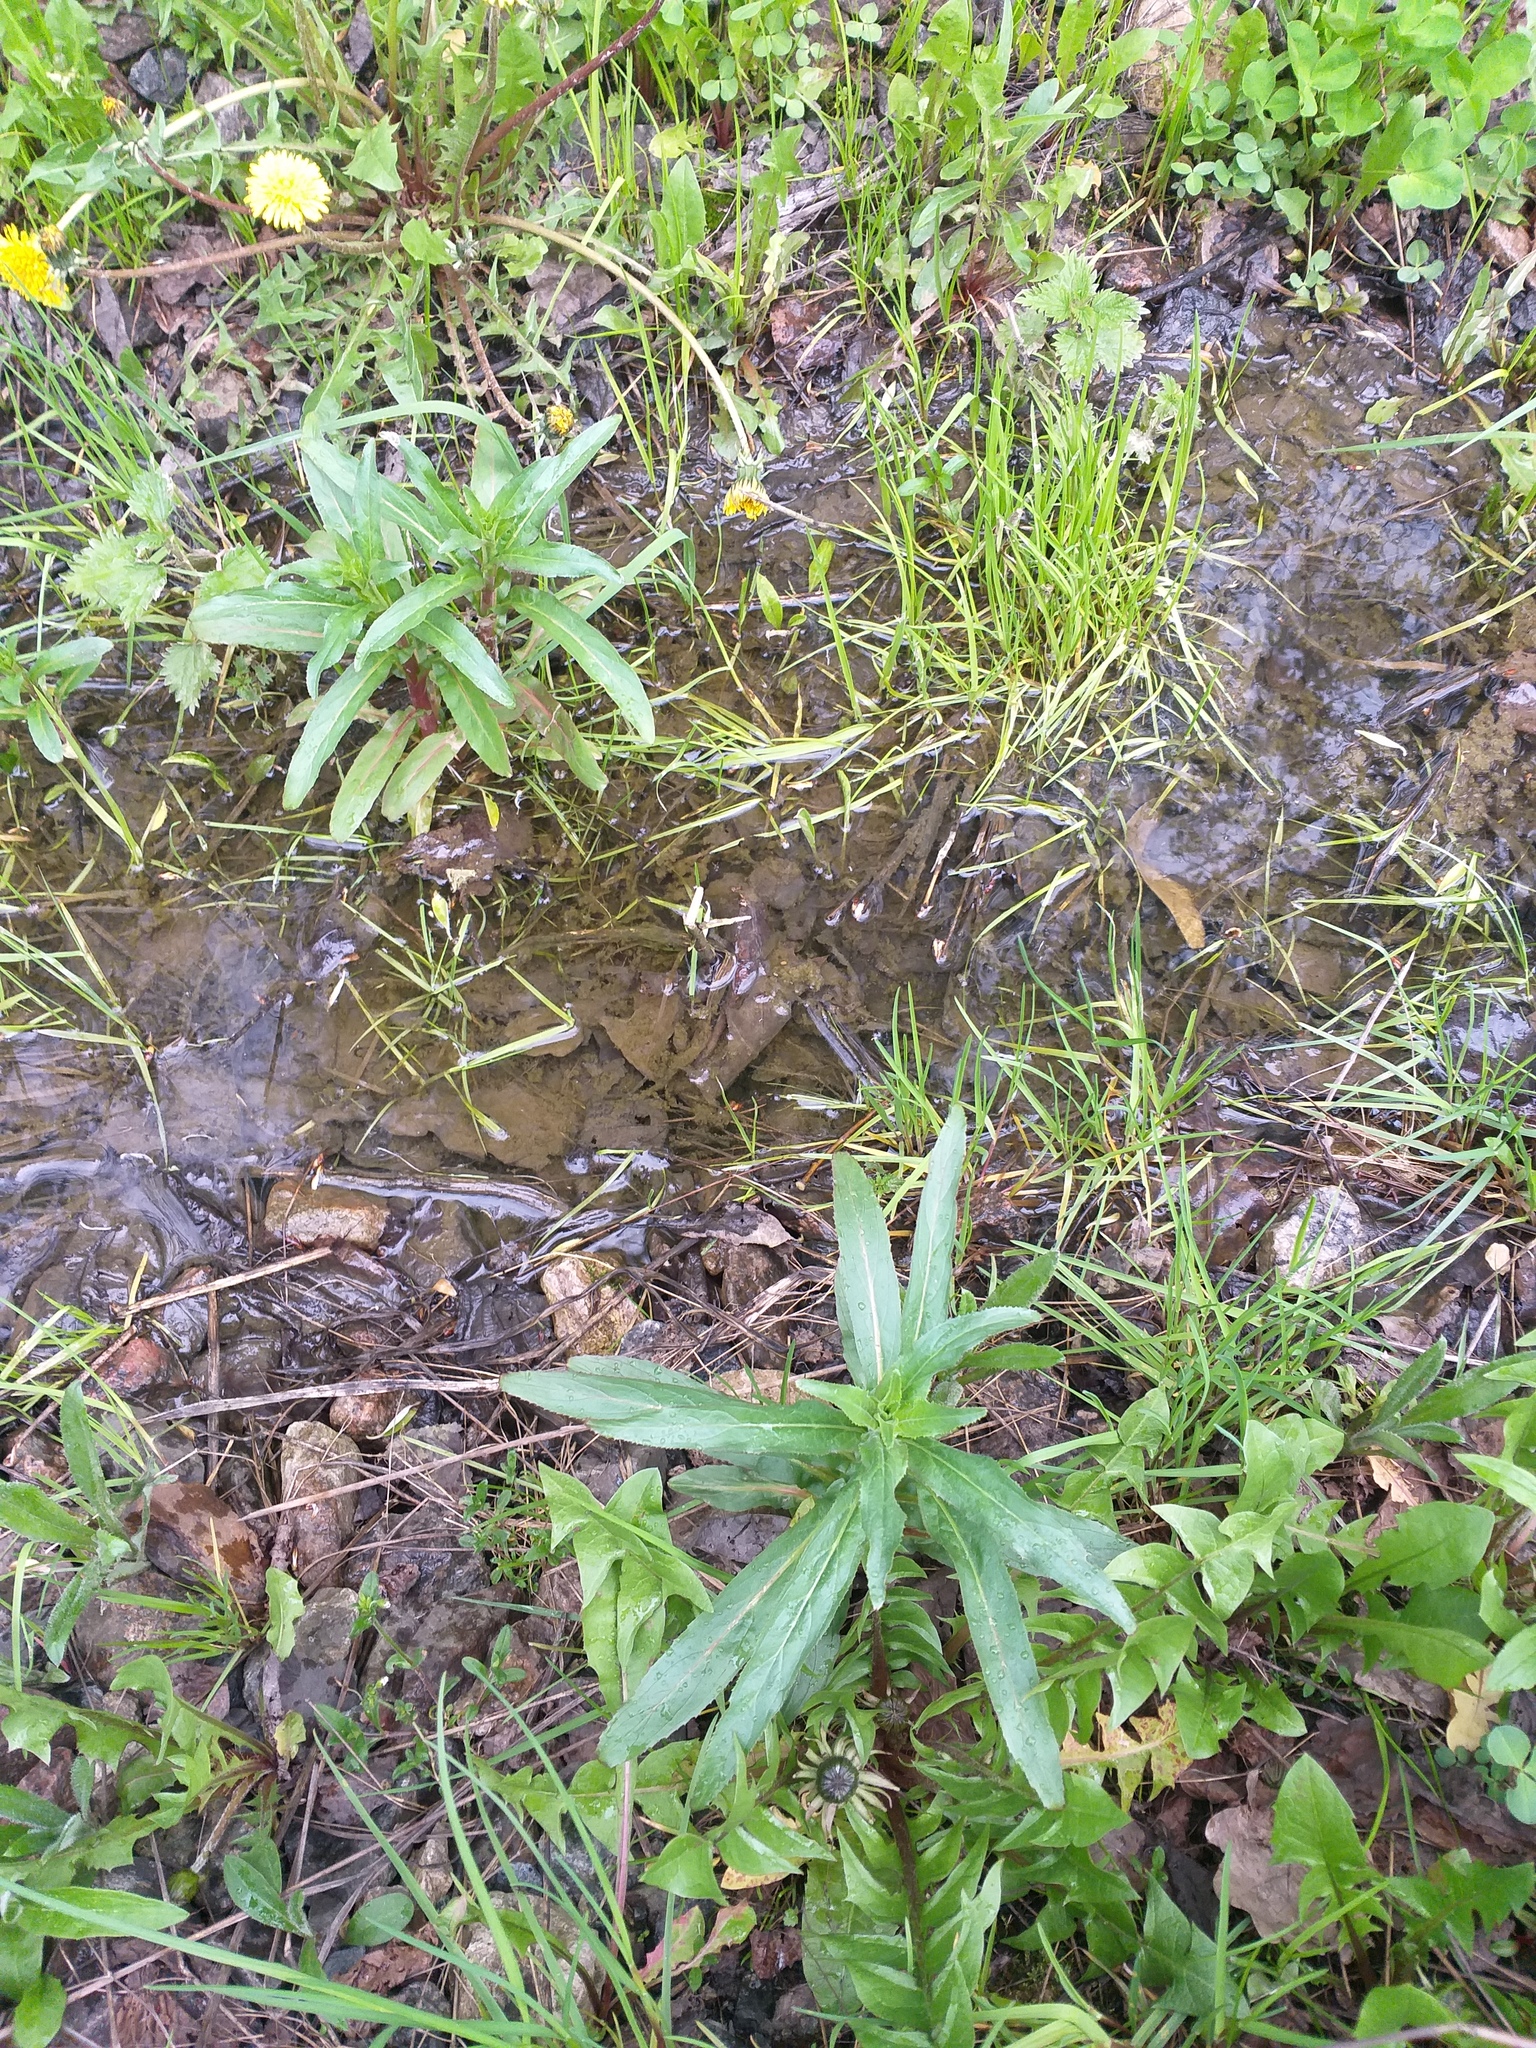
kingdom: Plantae
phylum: Tracheophyta
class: Magnoliopsida
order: Myrtales
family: Onagraceae
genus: Epilobium
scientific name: Epilobium hirsutum
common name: Great willowherb
